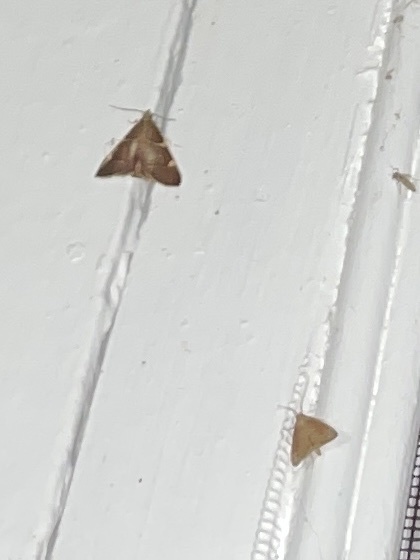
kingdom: Animalia
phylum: Arthropoda
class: Insecta
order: Lepidoptera
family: Pyralidae
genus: Hypsopygia
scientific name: Hypsopygia olinalis
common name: Yellow-fringed dolichomia moth
